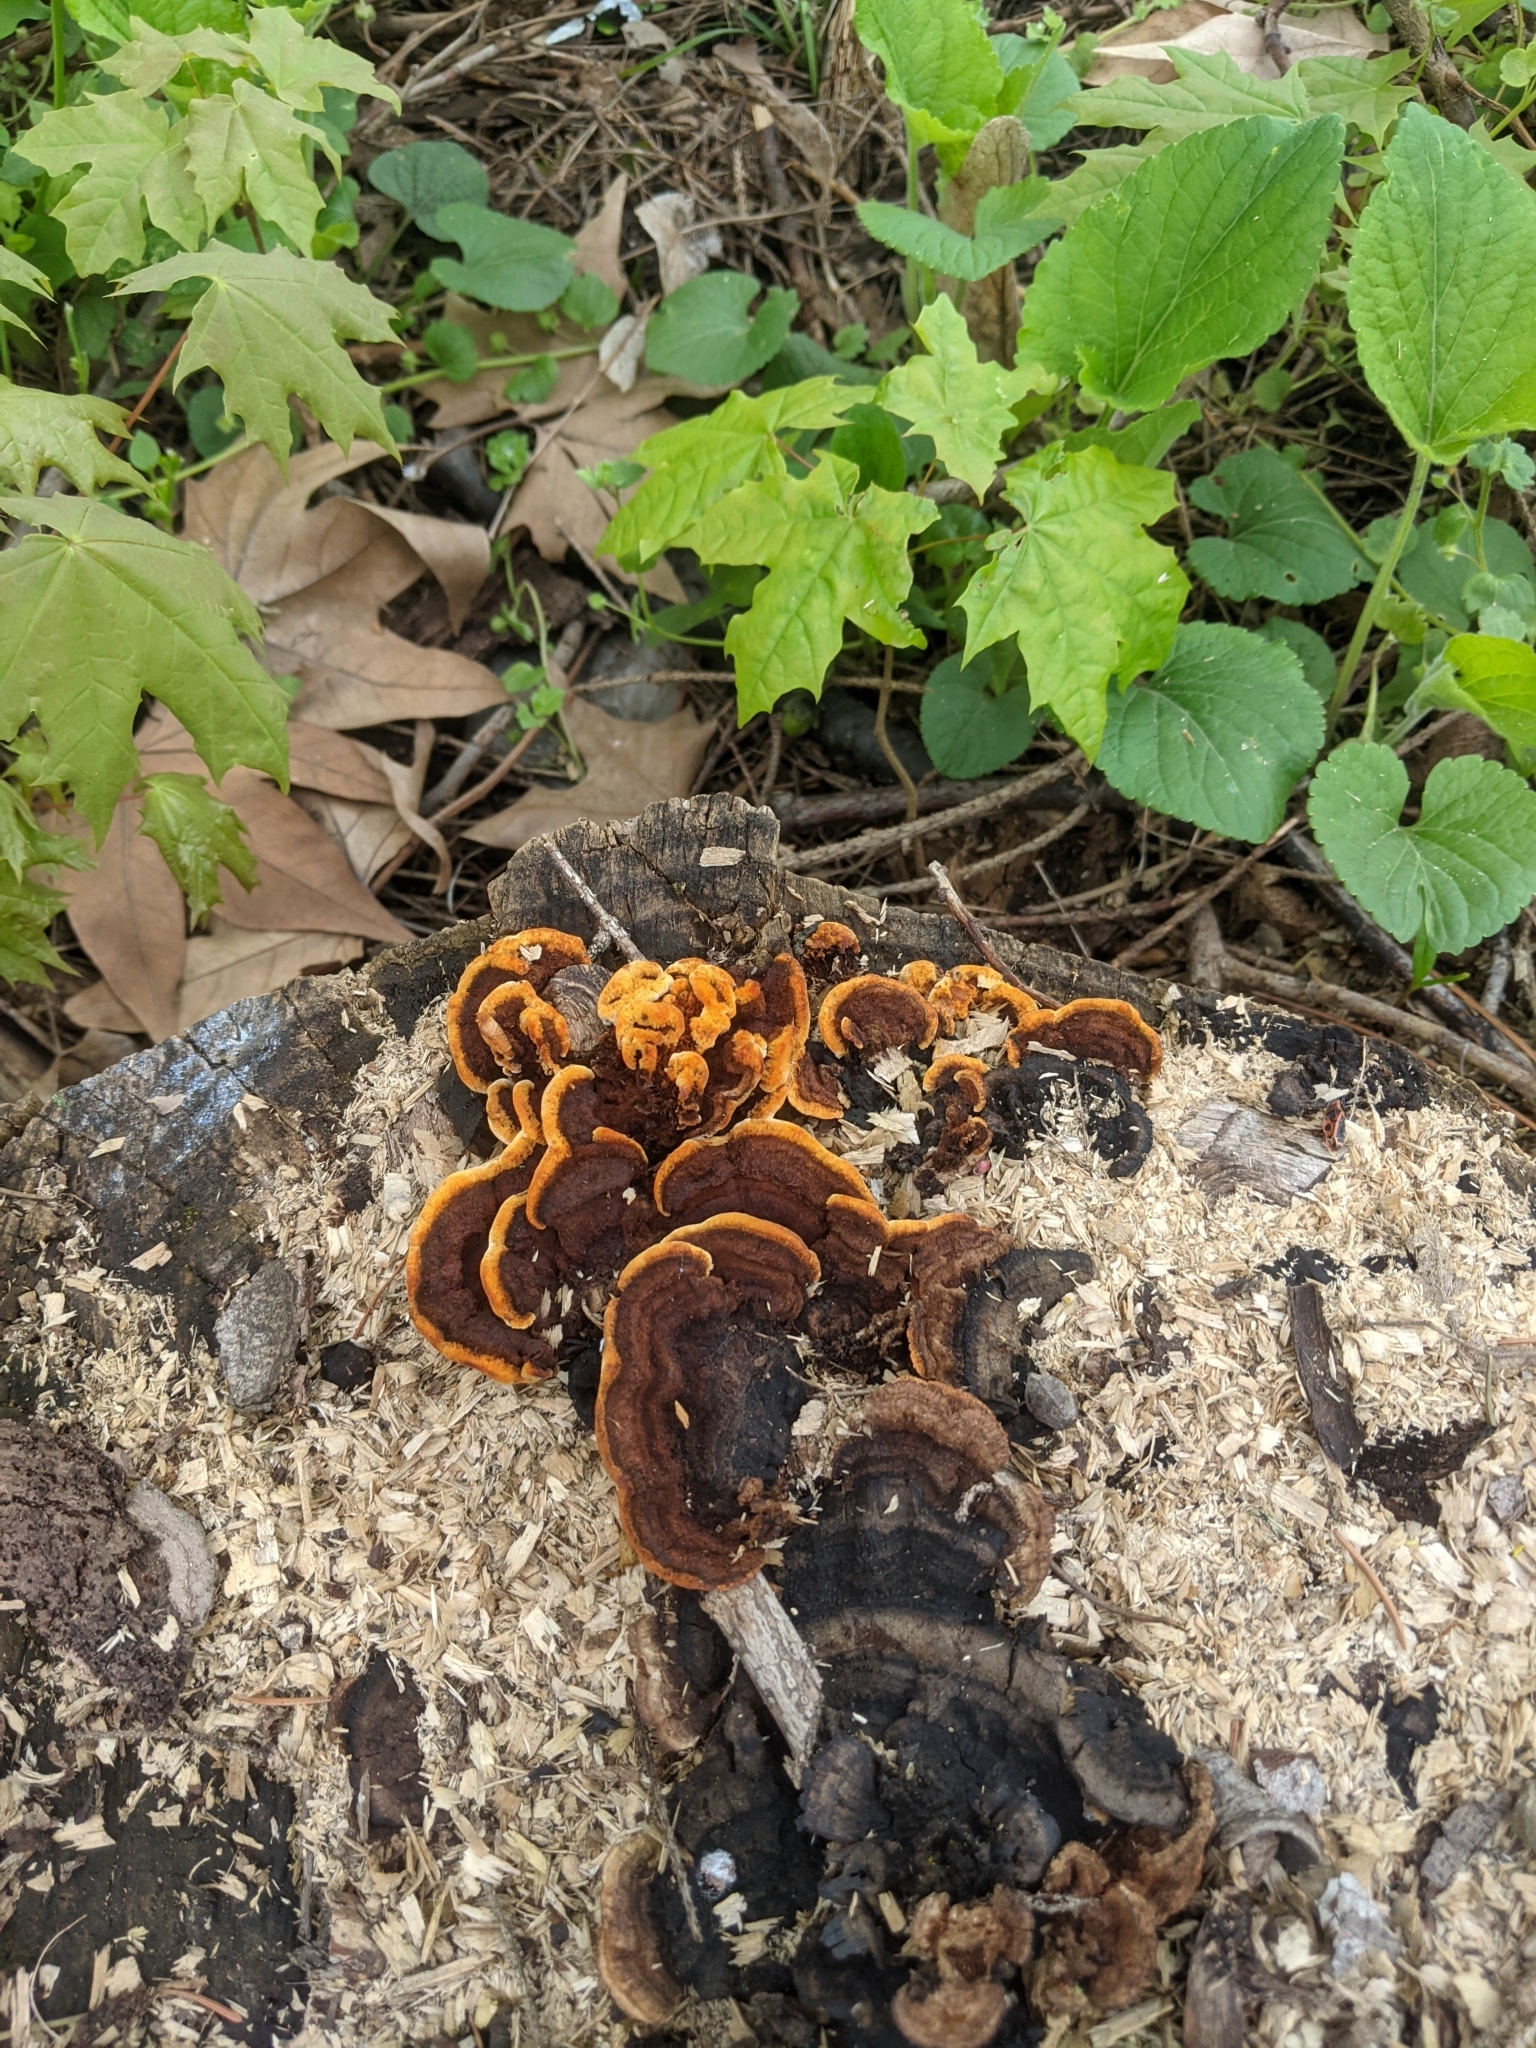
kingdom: Fungi
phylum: Basidiomycota
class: Agaricomycetes
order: Gloeophyllales
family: Gloeophyllaceae
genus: Gloeophyllum
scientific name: Gloeophyllum sepiarium
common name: Conifer mazegill
